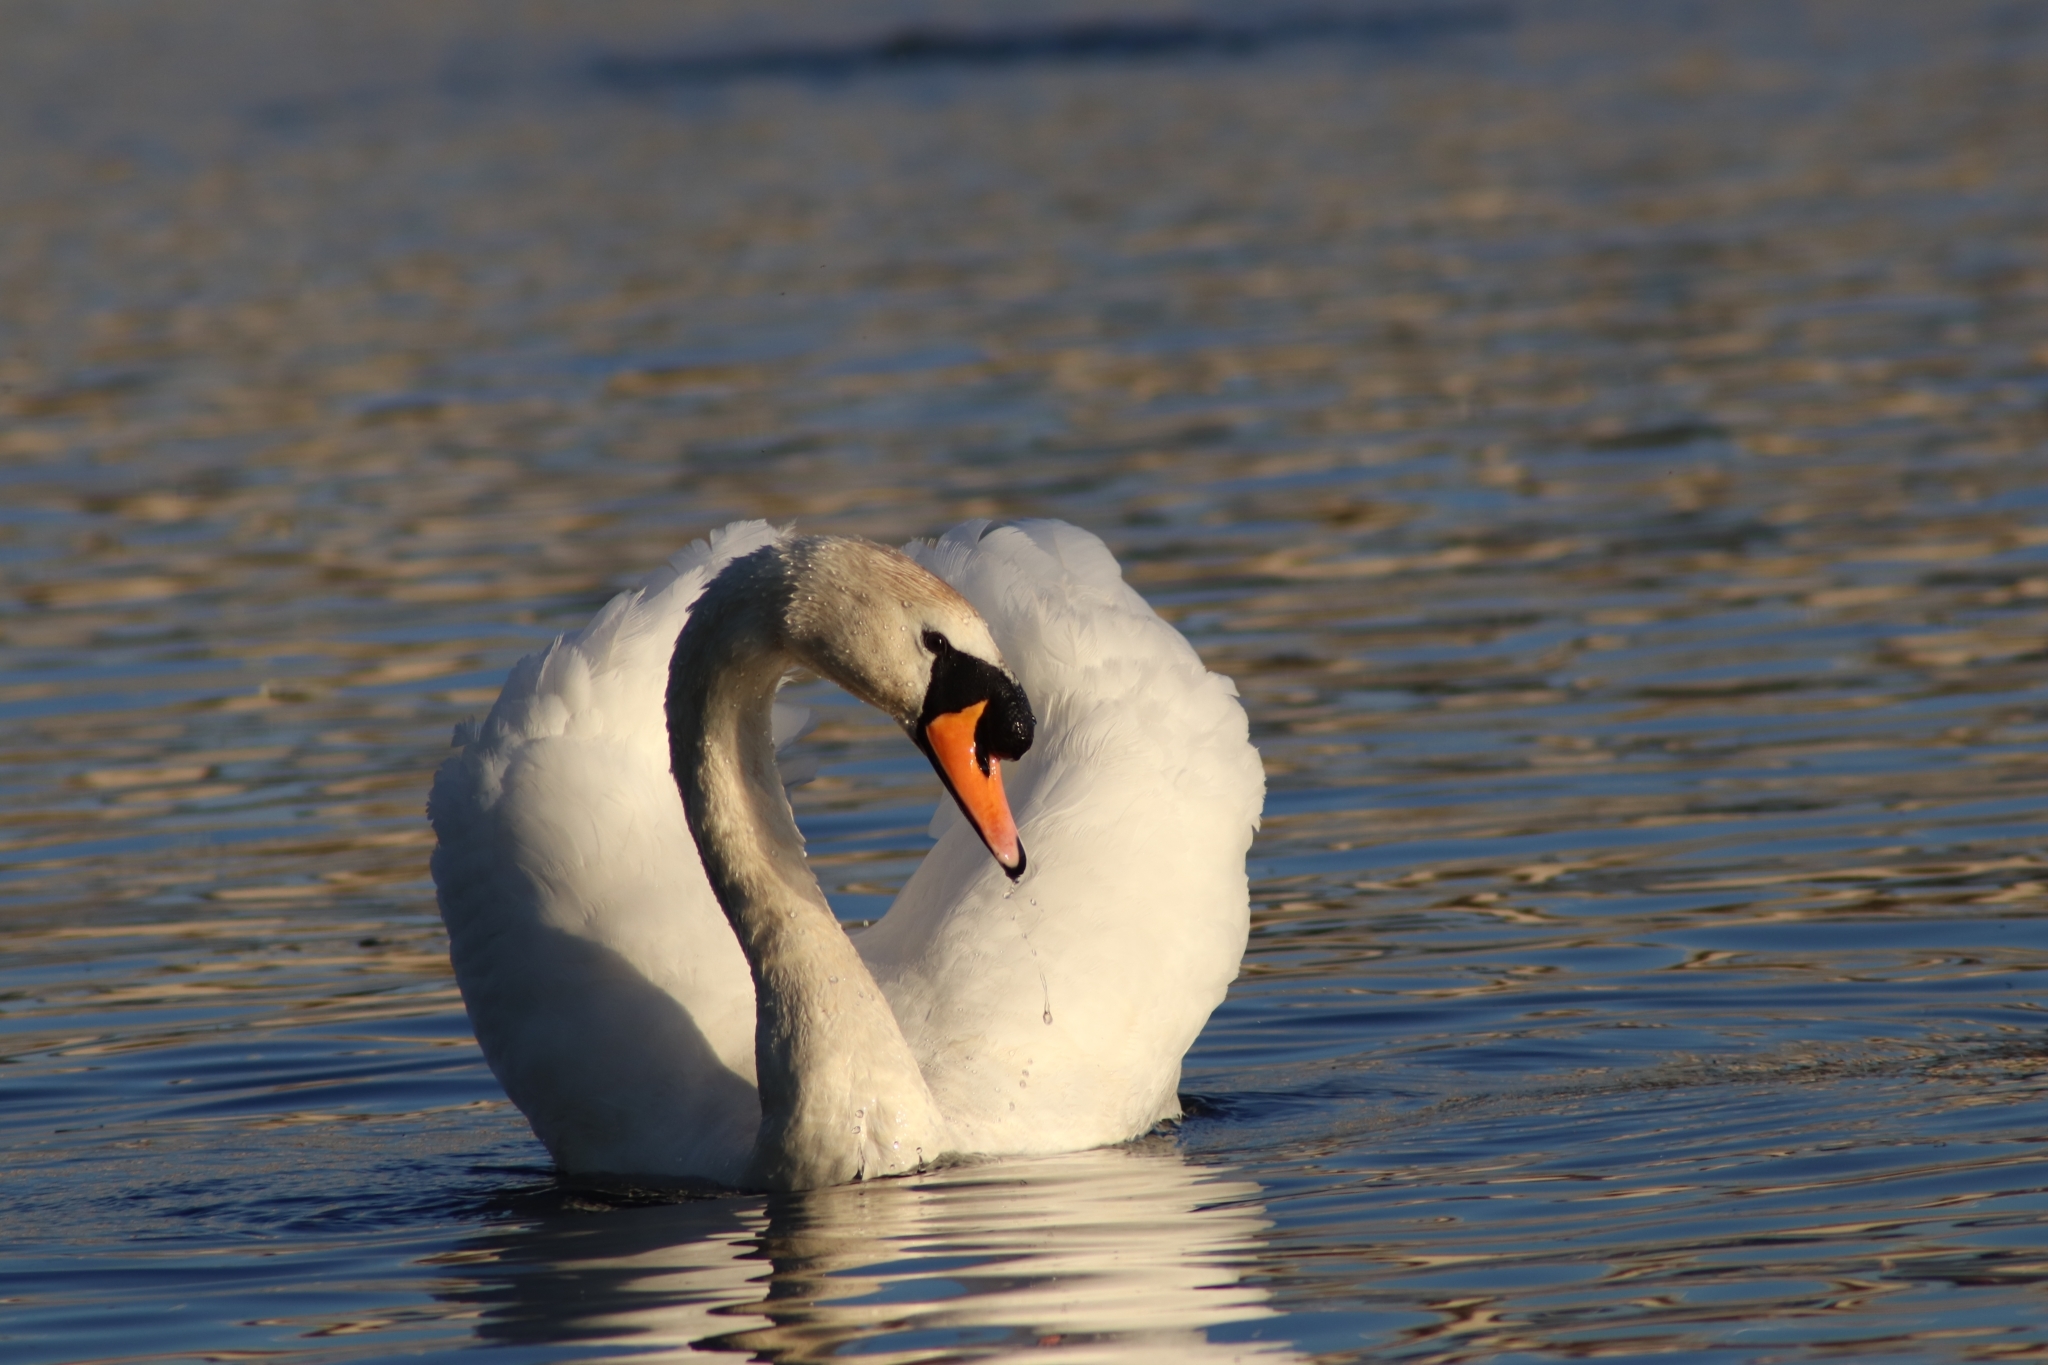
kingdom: Animalia
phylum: Chordata
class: Aves
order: Anseriformes
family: Anatidae
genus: Cygnus
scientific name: Cygnus olor
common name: Mute swan
